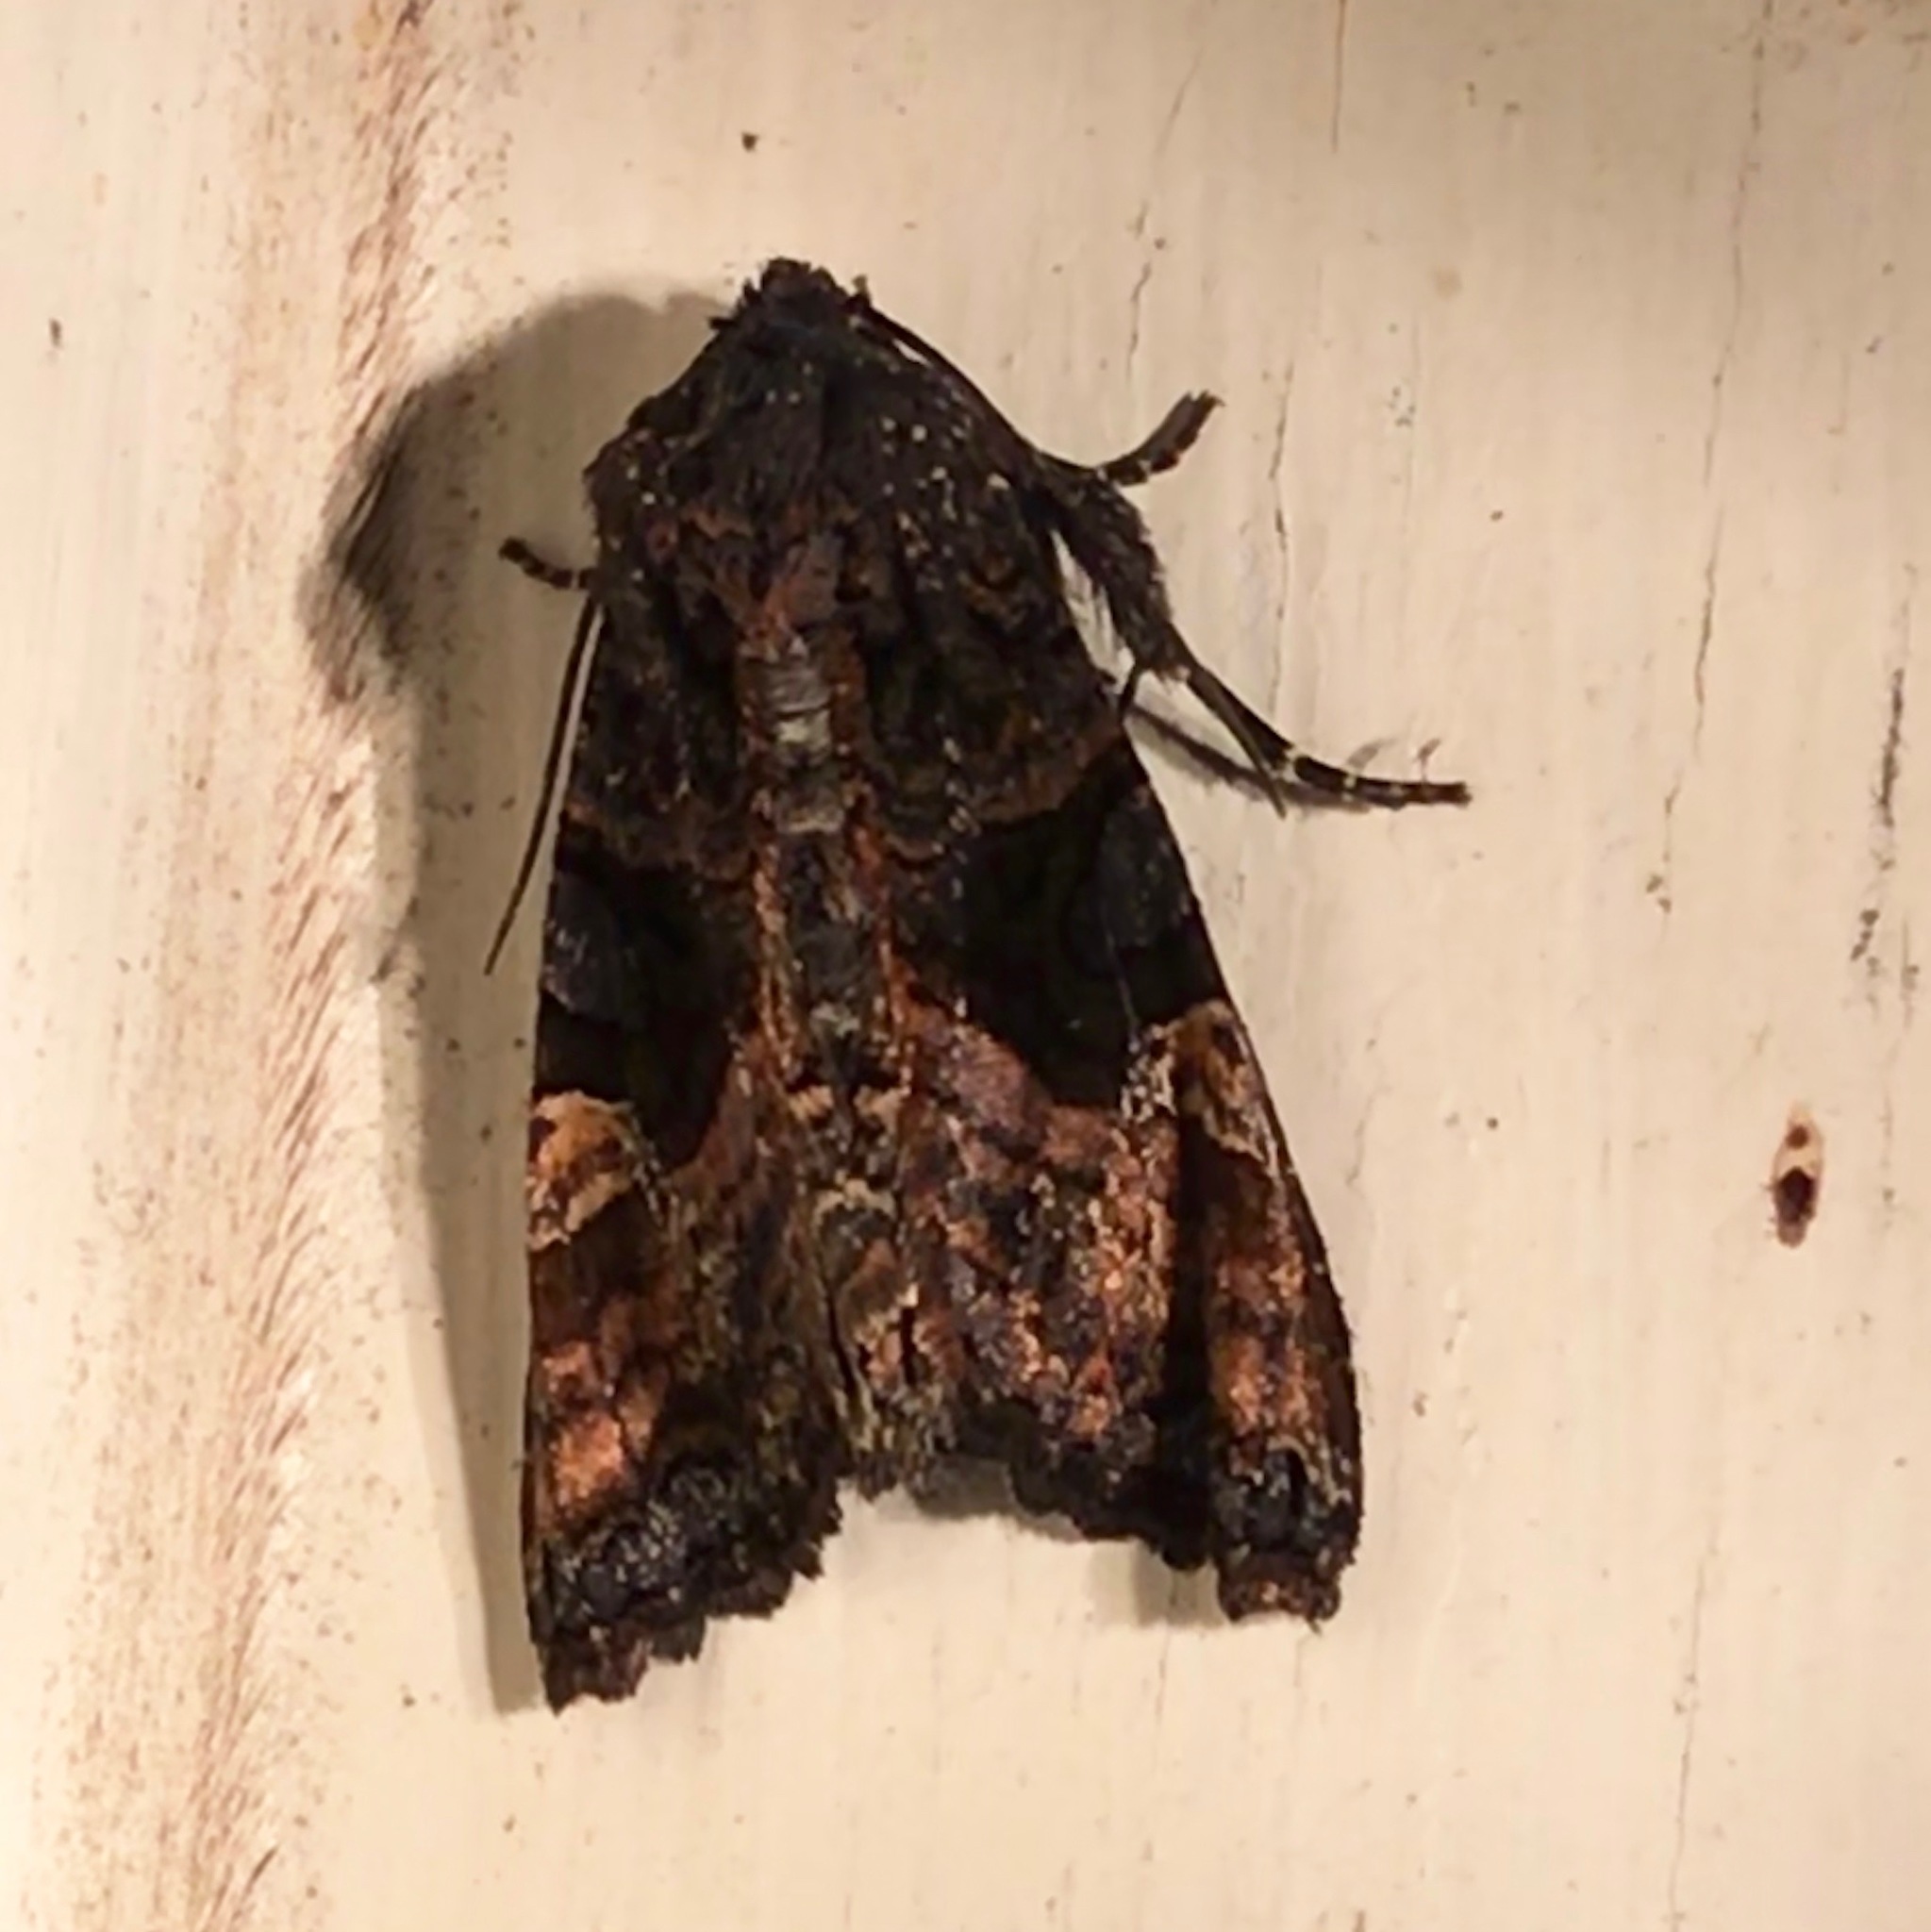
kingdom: Animalia
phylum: Arthropoda
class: Insecta
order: Lepidoptera
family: Noctuidae
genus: Euplexia
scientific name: Euplexia benesimilis
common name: American angle shades
